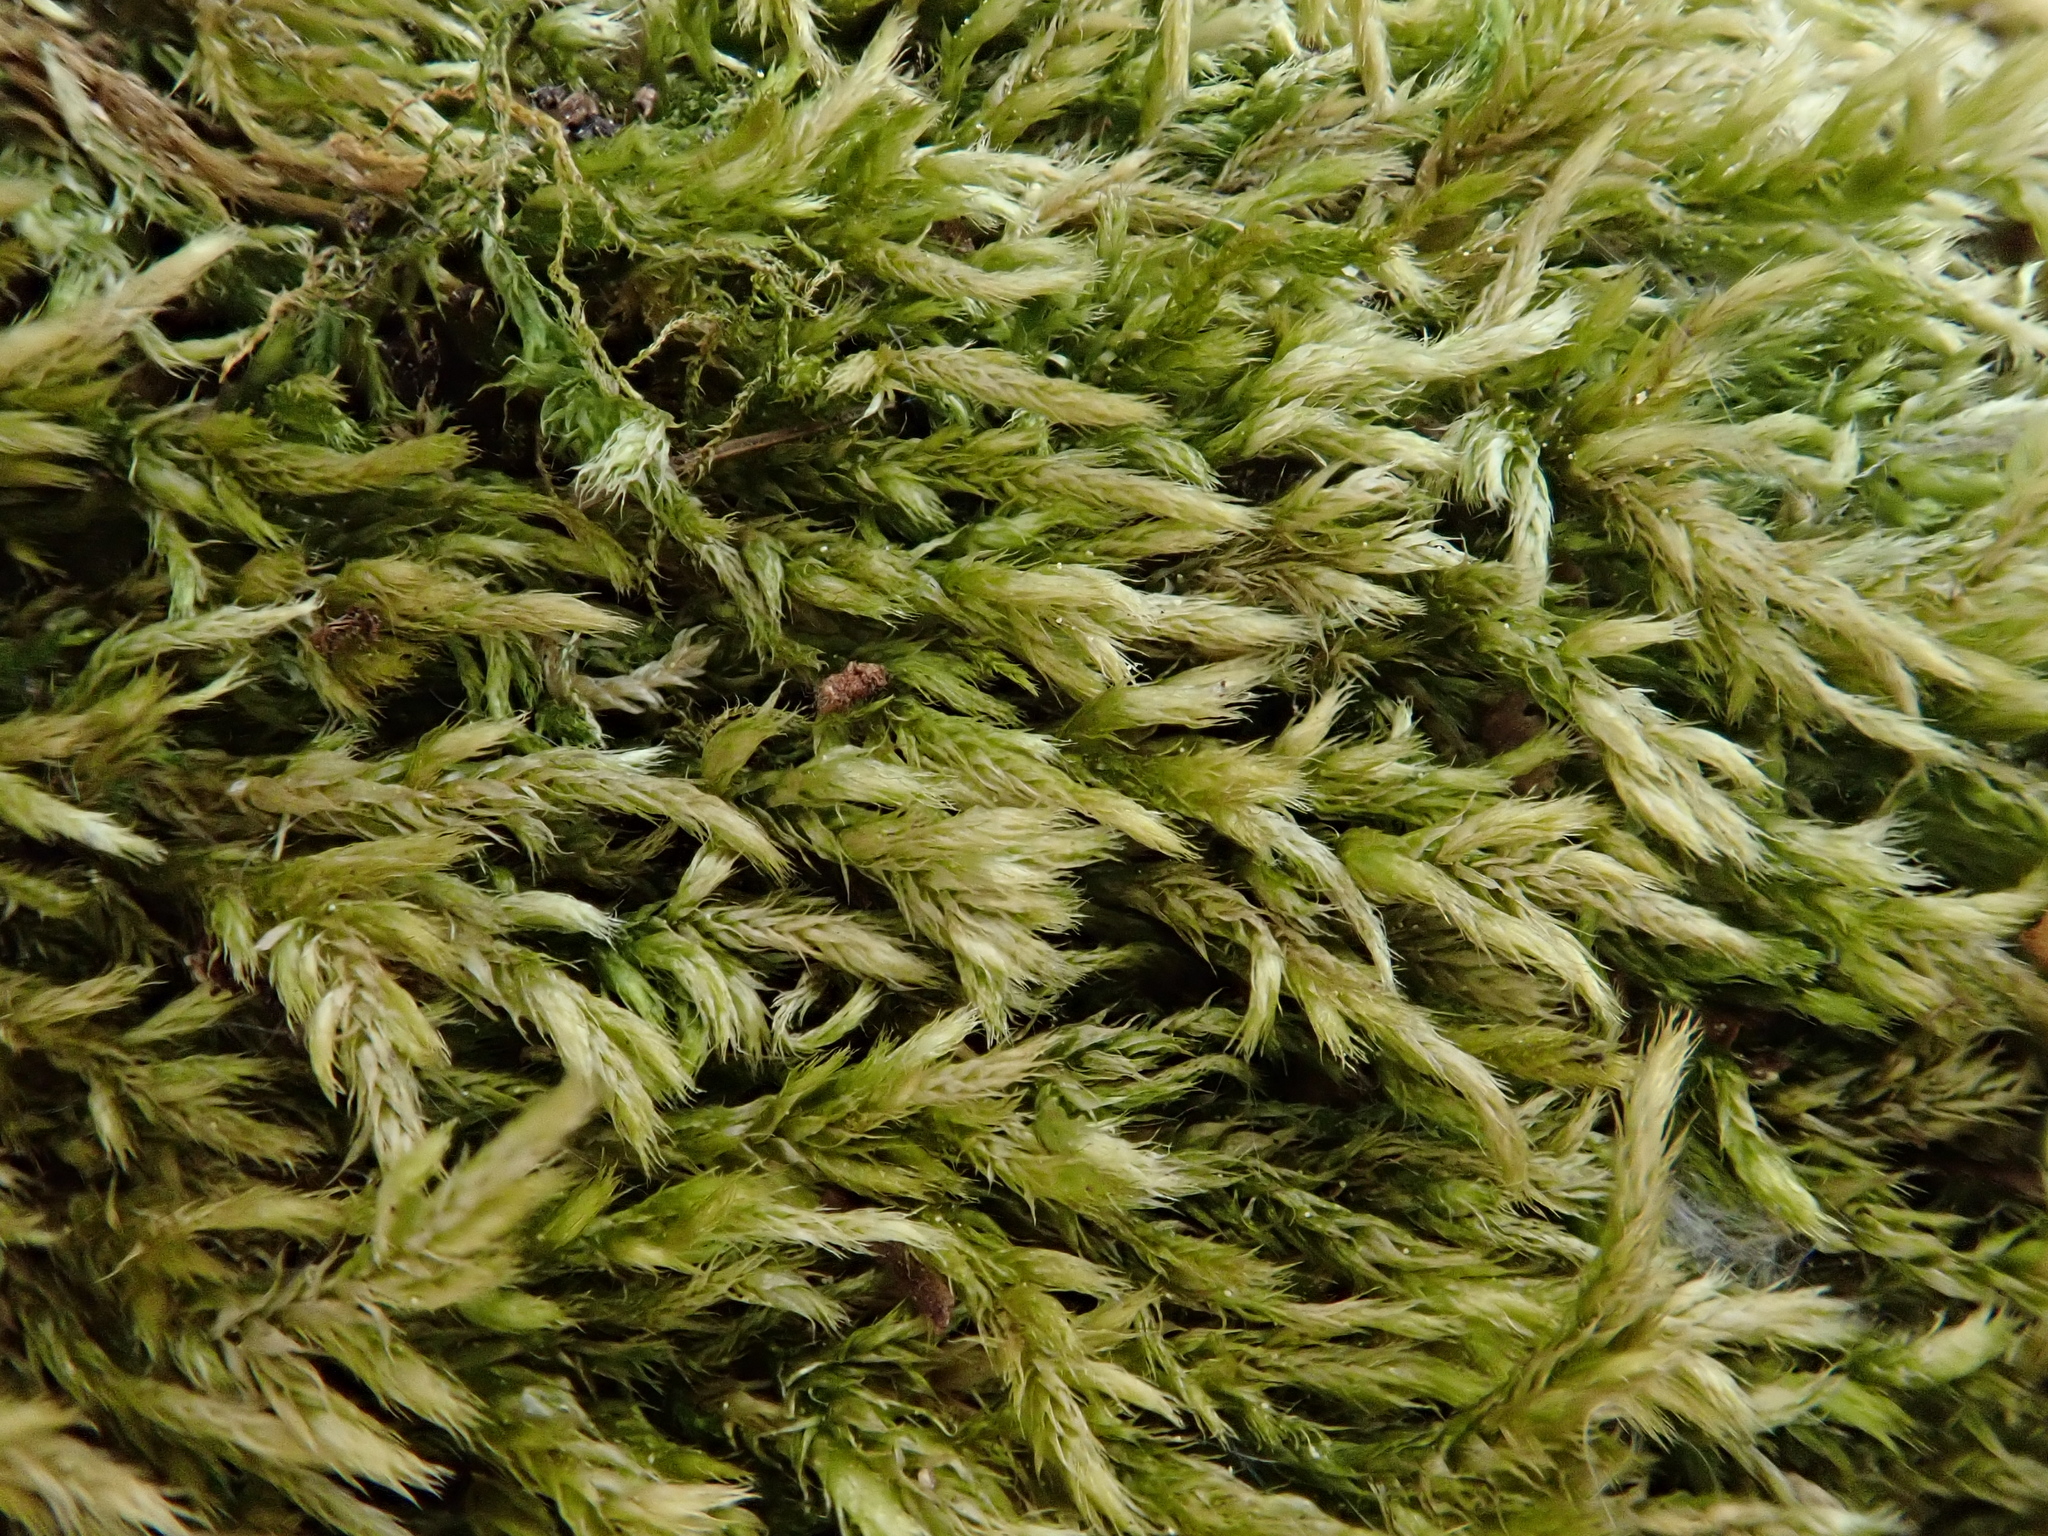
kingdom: Plantae
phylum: Bryophyta
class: Bryopsida
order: Hypnales
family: Brachytheciaceae
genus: Brachythecium
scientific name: Brachythecium salebrosum
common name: Smooth-stalk feather-moss
